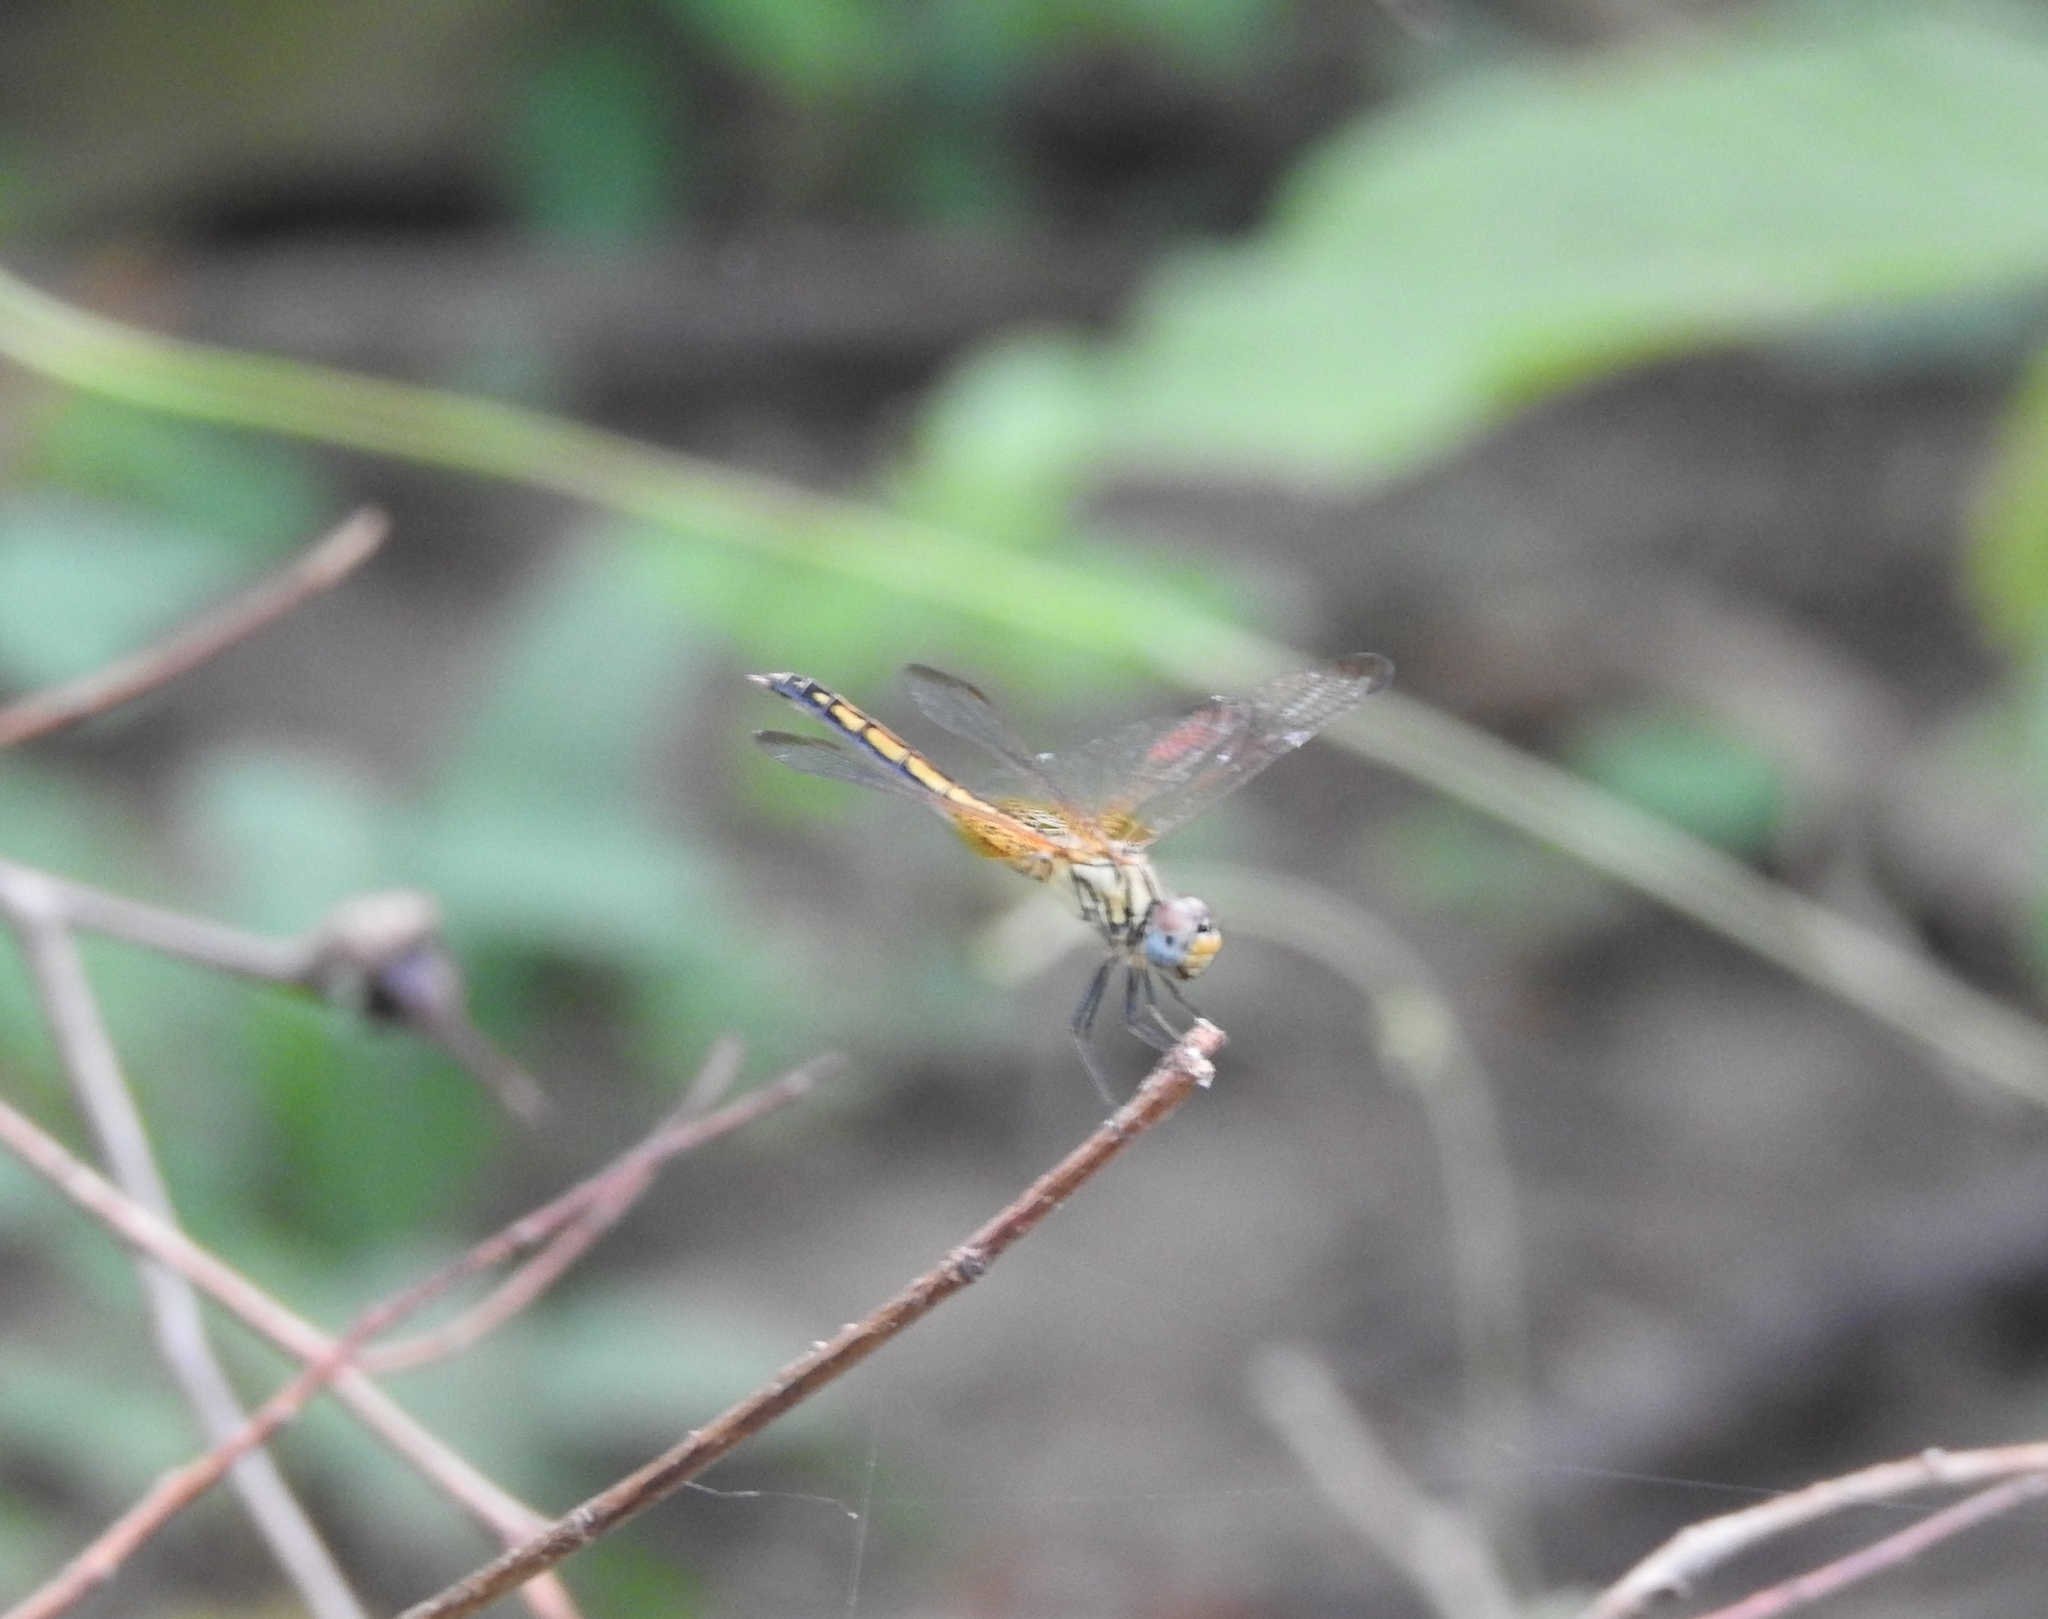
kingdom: Animalia
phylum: Arthropoda
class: Insecta
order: Odonata
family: Libellulidae
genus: Trithemis
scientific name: Trithemis aurora
